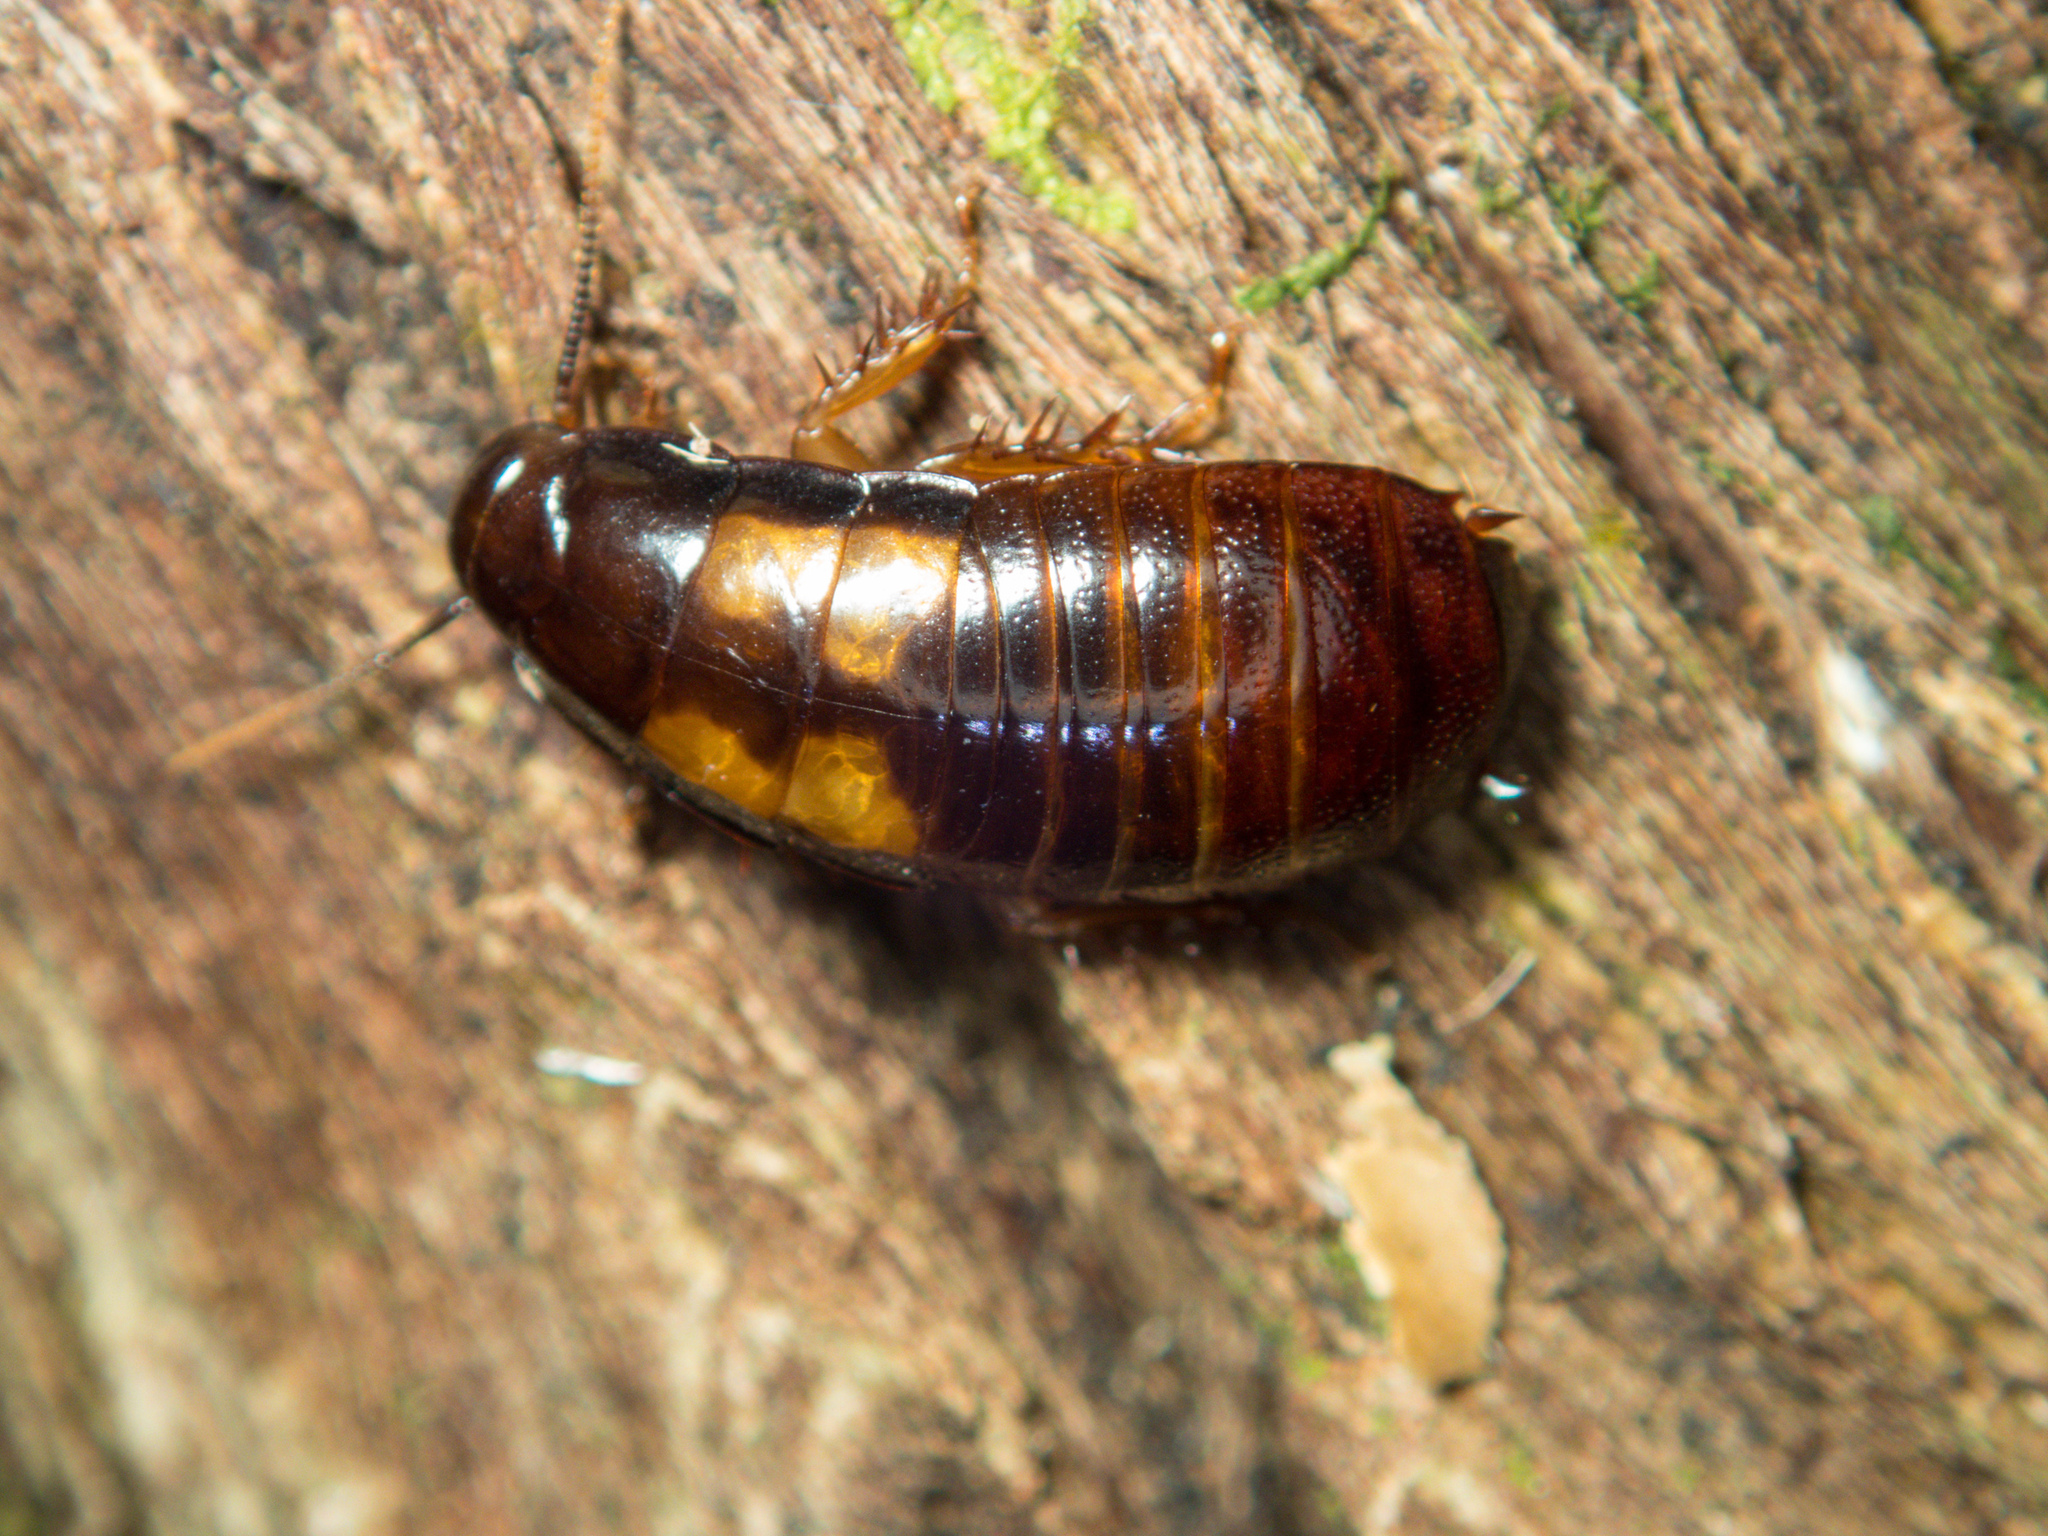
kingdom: Animalia
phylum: Arthropoda
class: Insecta
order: Blattodea
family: Blaberidae
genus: Panesthia
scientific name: Panesthia angustipennis
